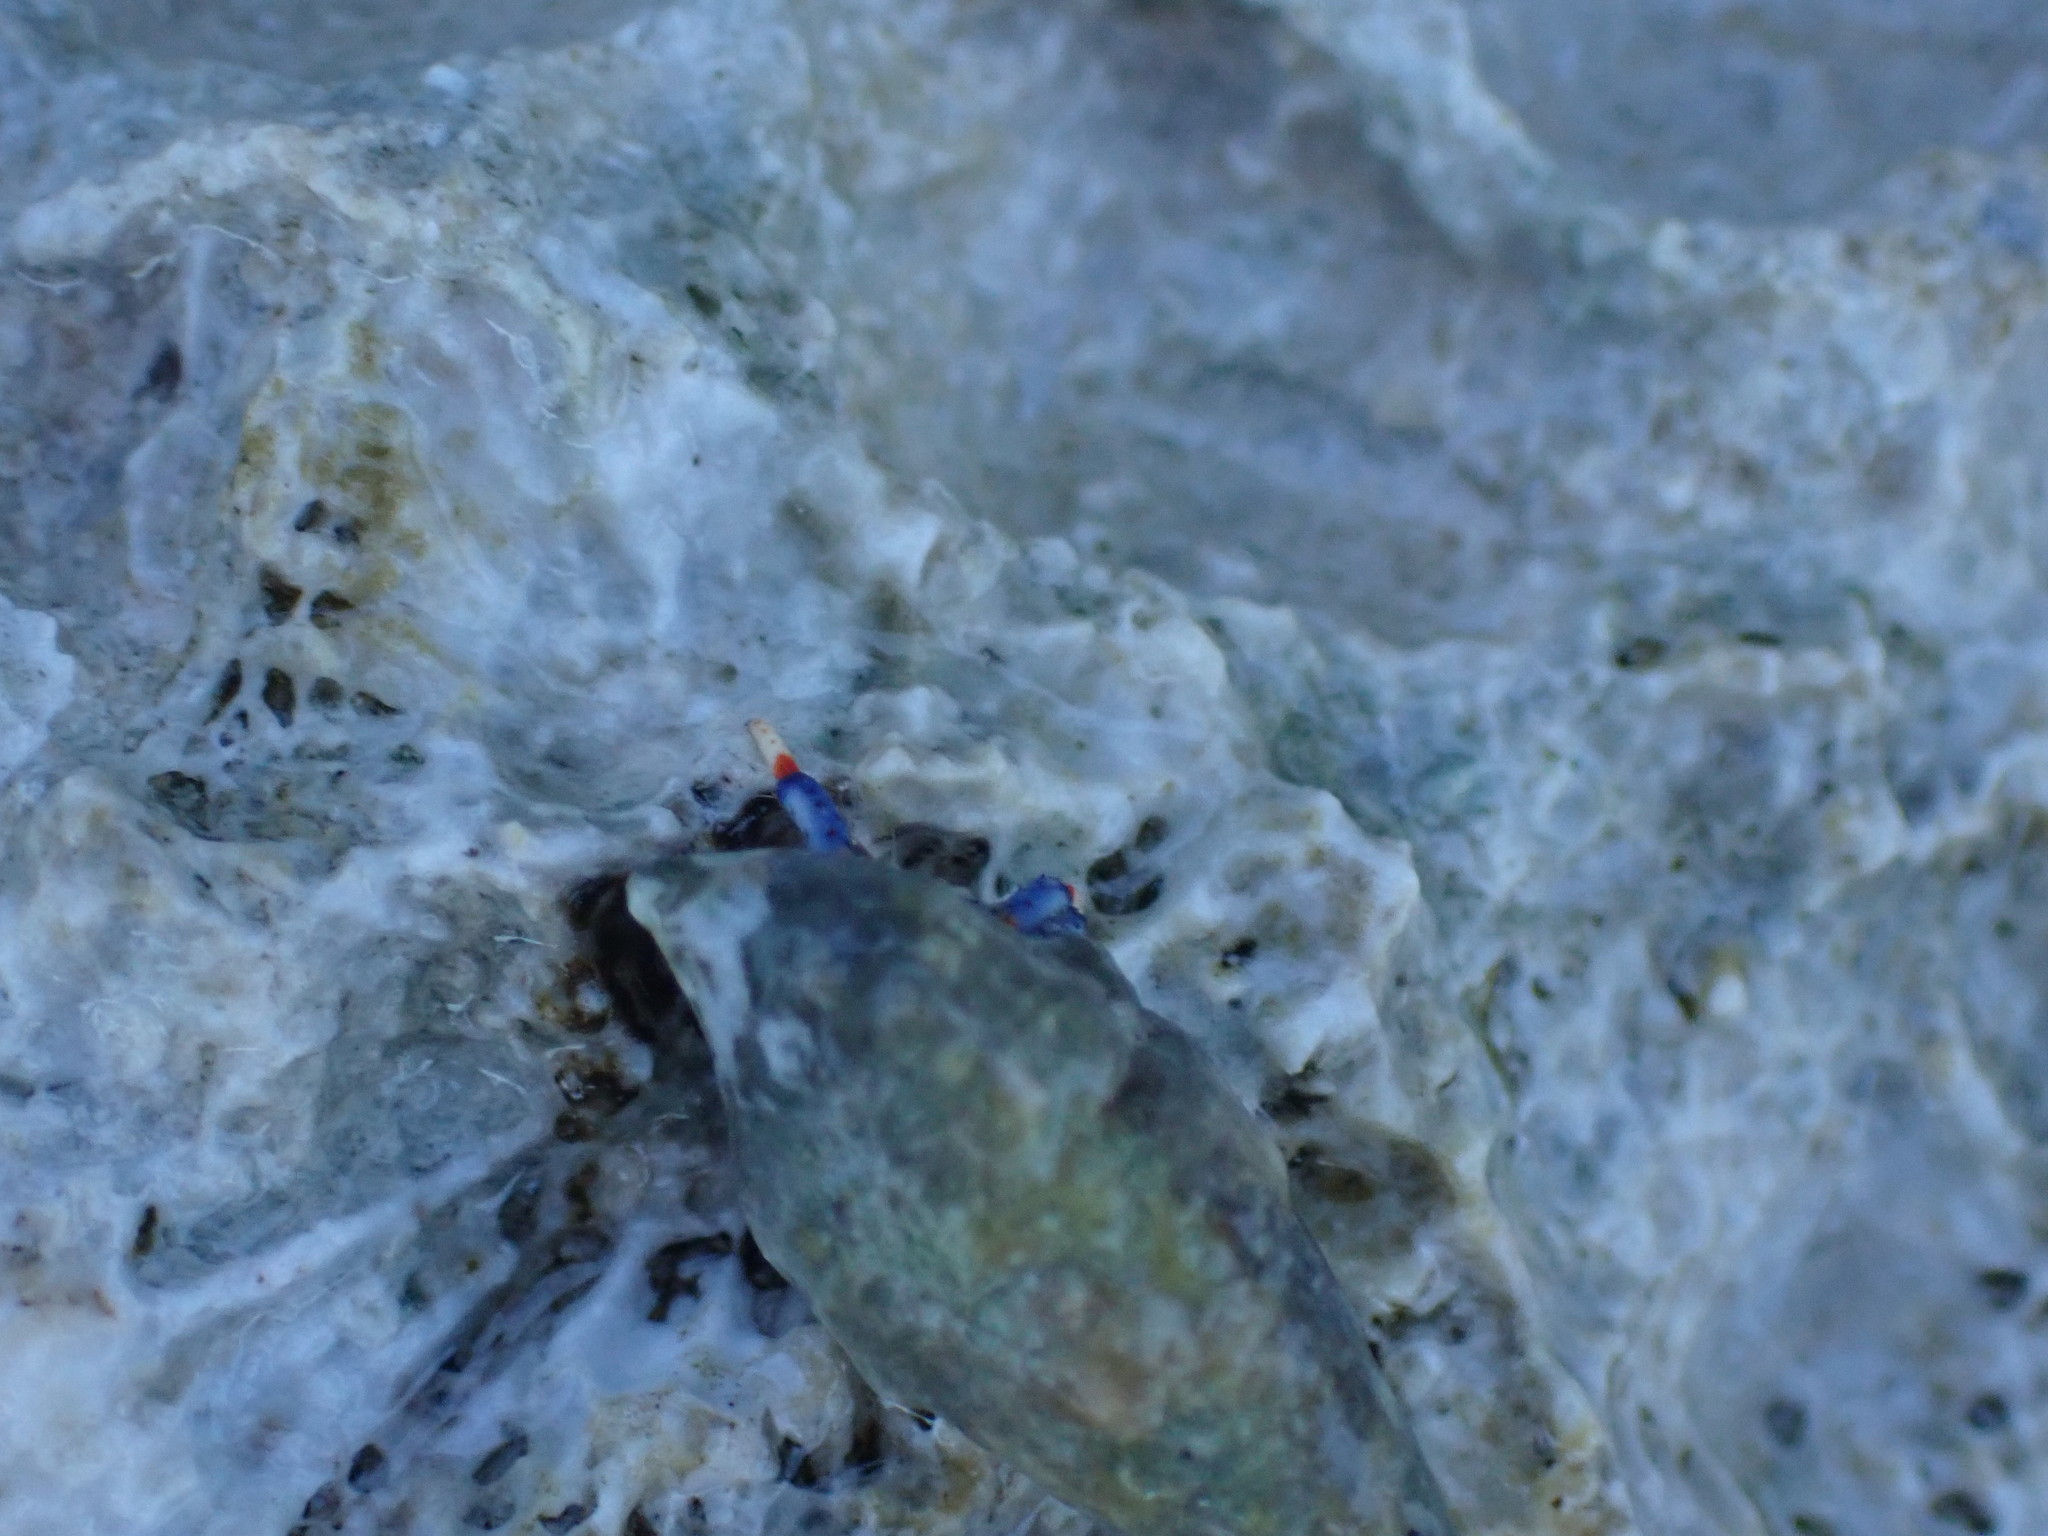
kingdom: Animalia
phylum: Arthropoda
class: Malacostraca
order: Decapoda
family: Diogenidae
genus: Clibanarius
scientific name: Clibanarius tricolor
